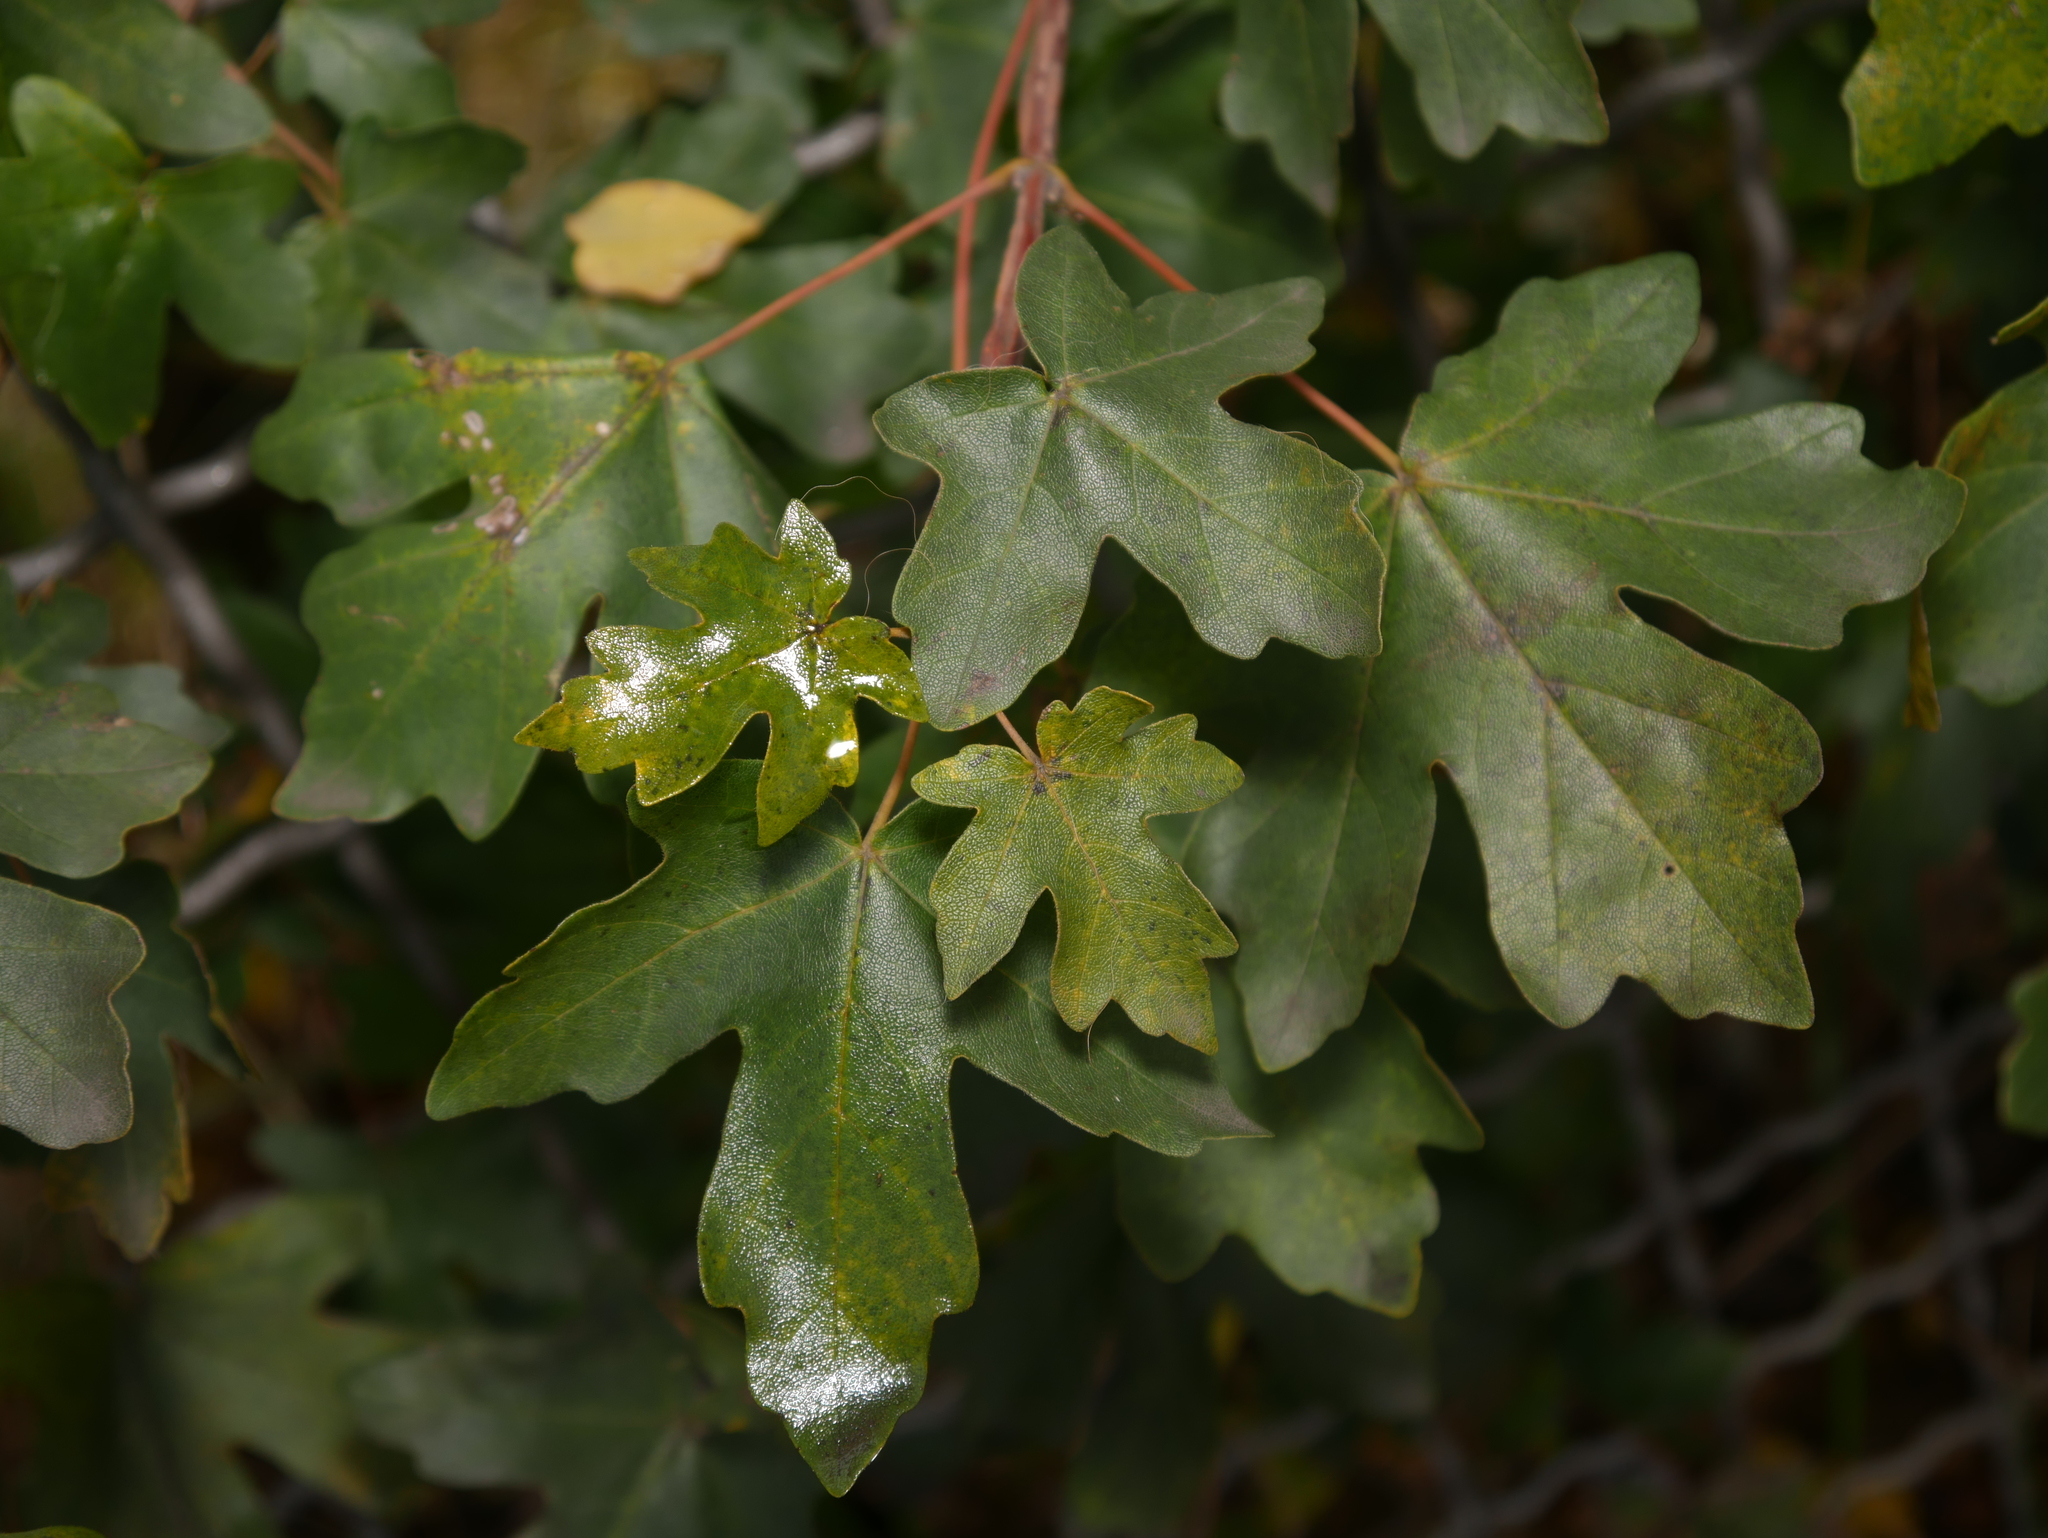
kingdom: Plantae
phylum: Tracheophyta
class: Magnoliopsida
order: Sapindales
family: Sapindaceae
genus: Acer
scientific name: Acer campestre
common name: Field maple
